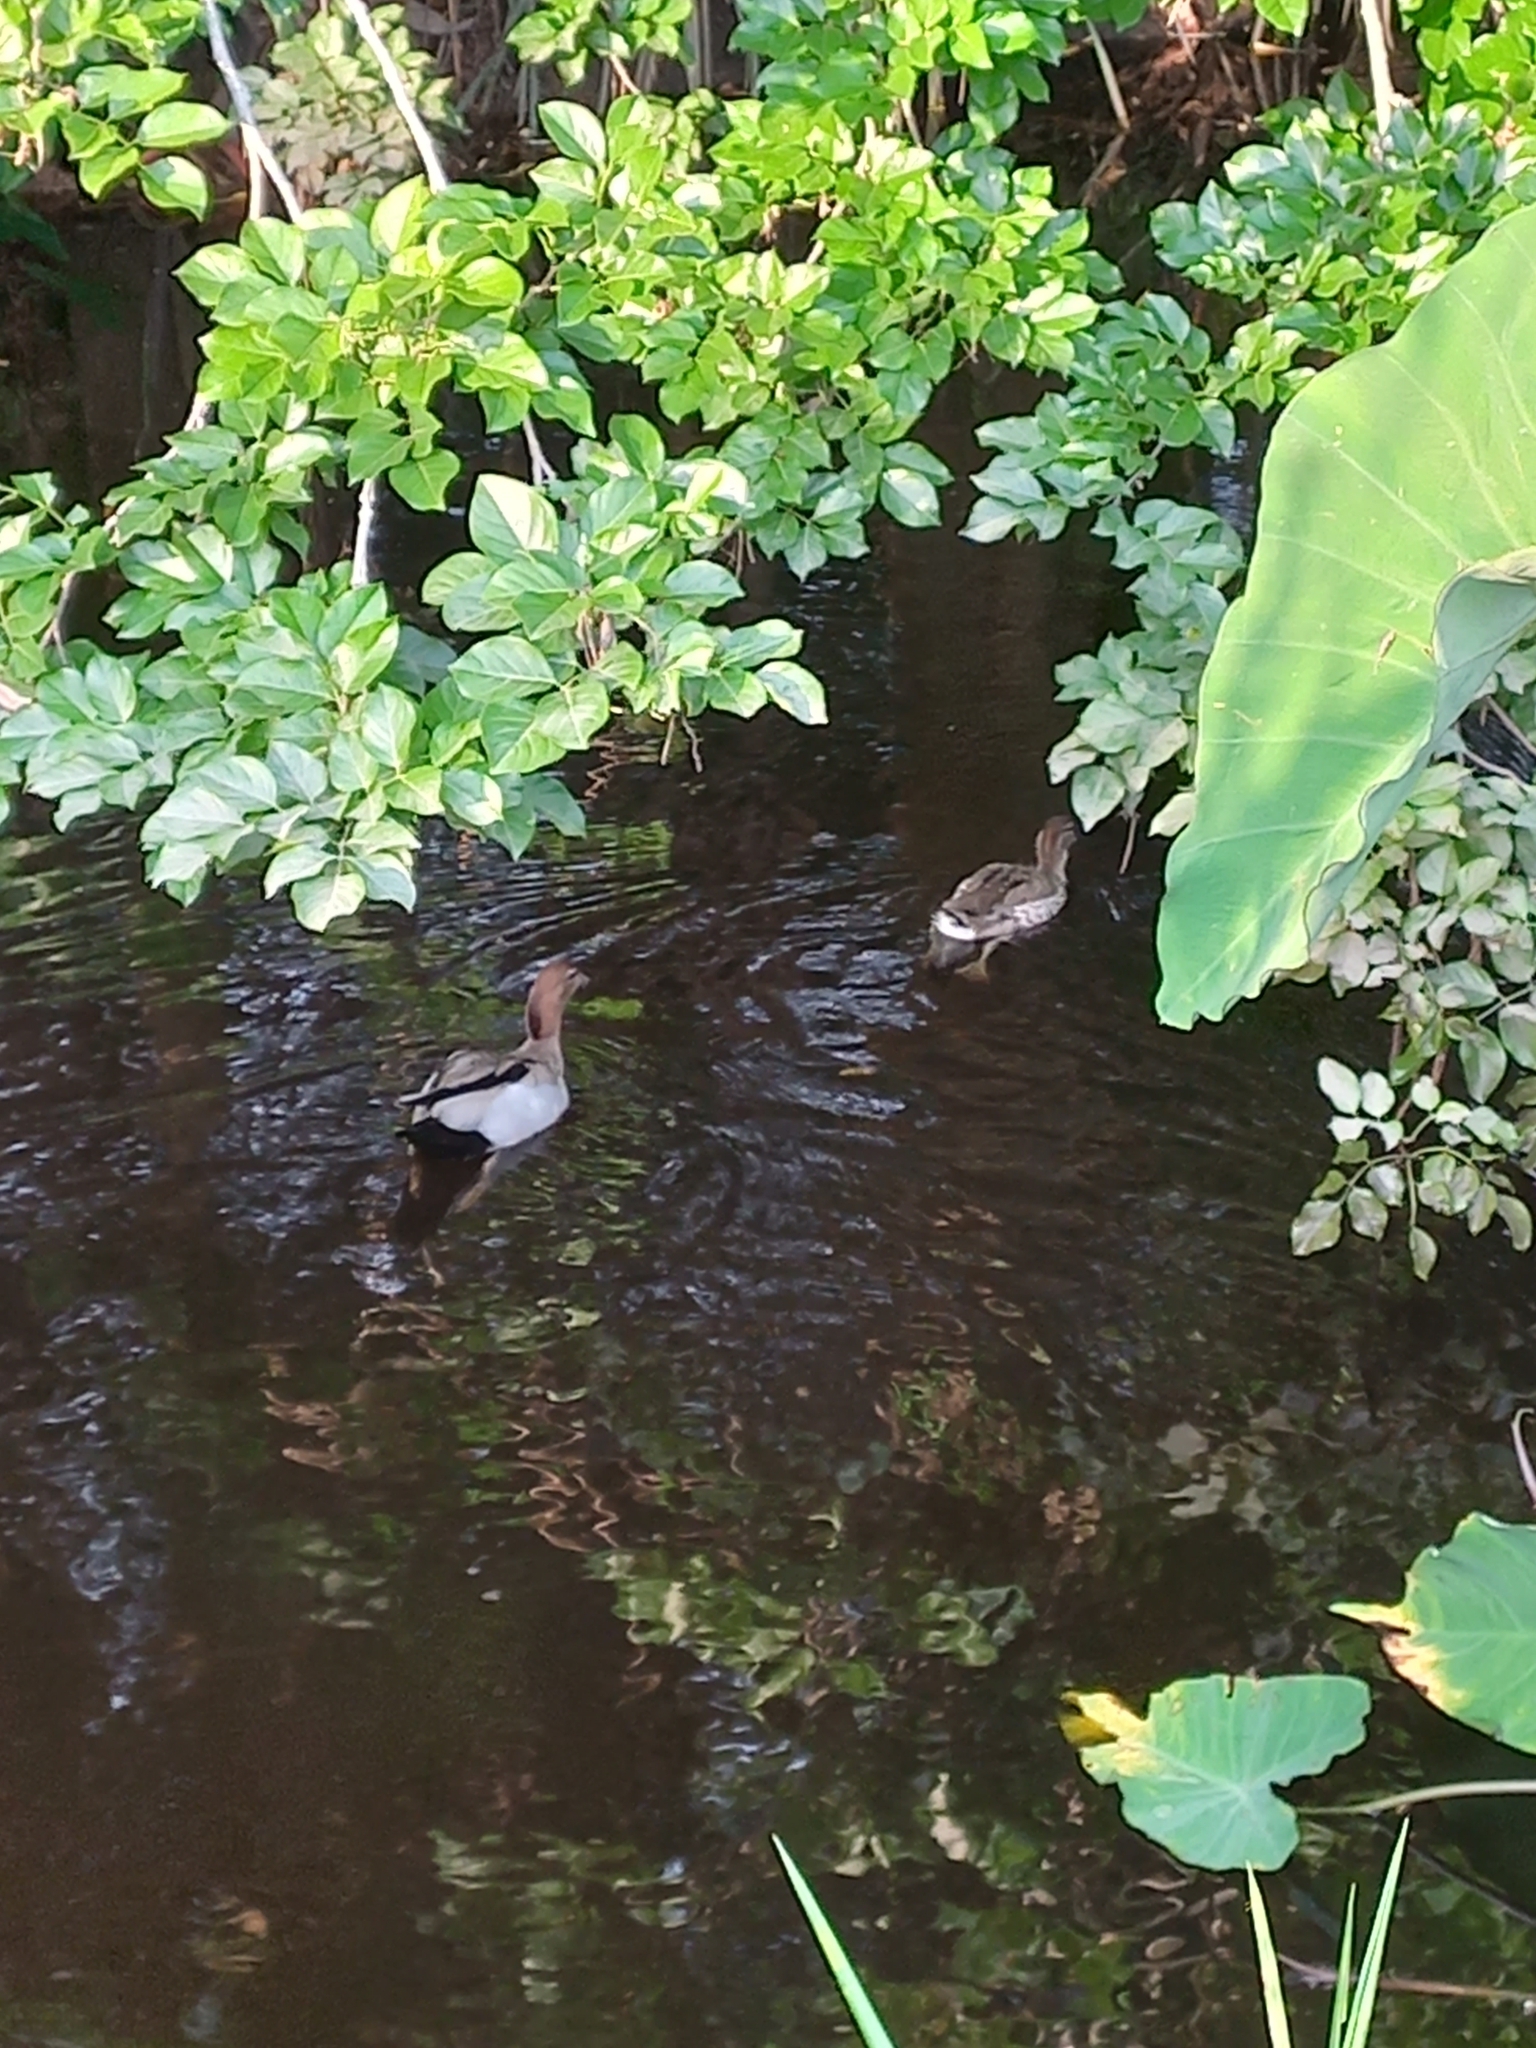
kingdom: Animalia
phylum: Chordata
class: Aves
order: Anseriformes
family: Anatidae
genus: Chenonetta
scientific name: Chenonetta jubata
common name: Maned duck
